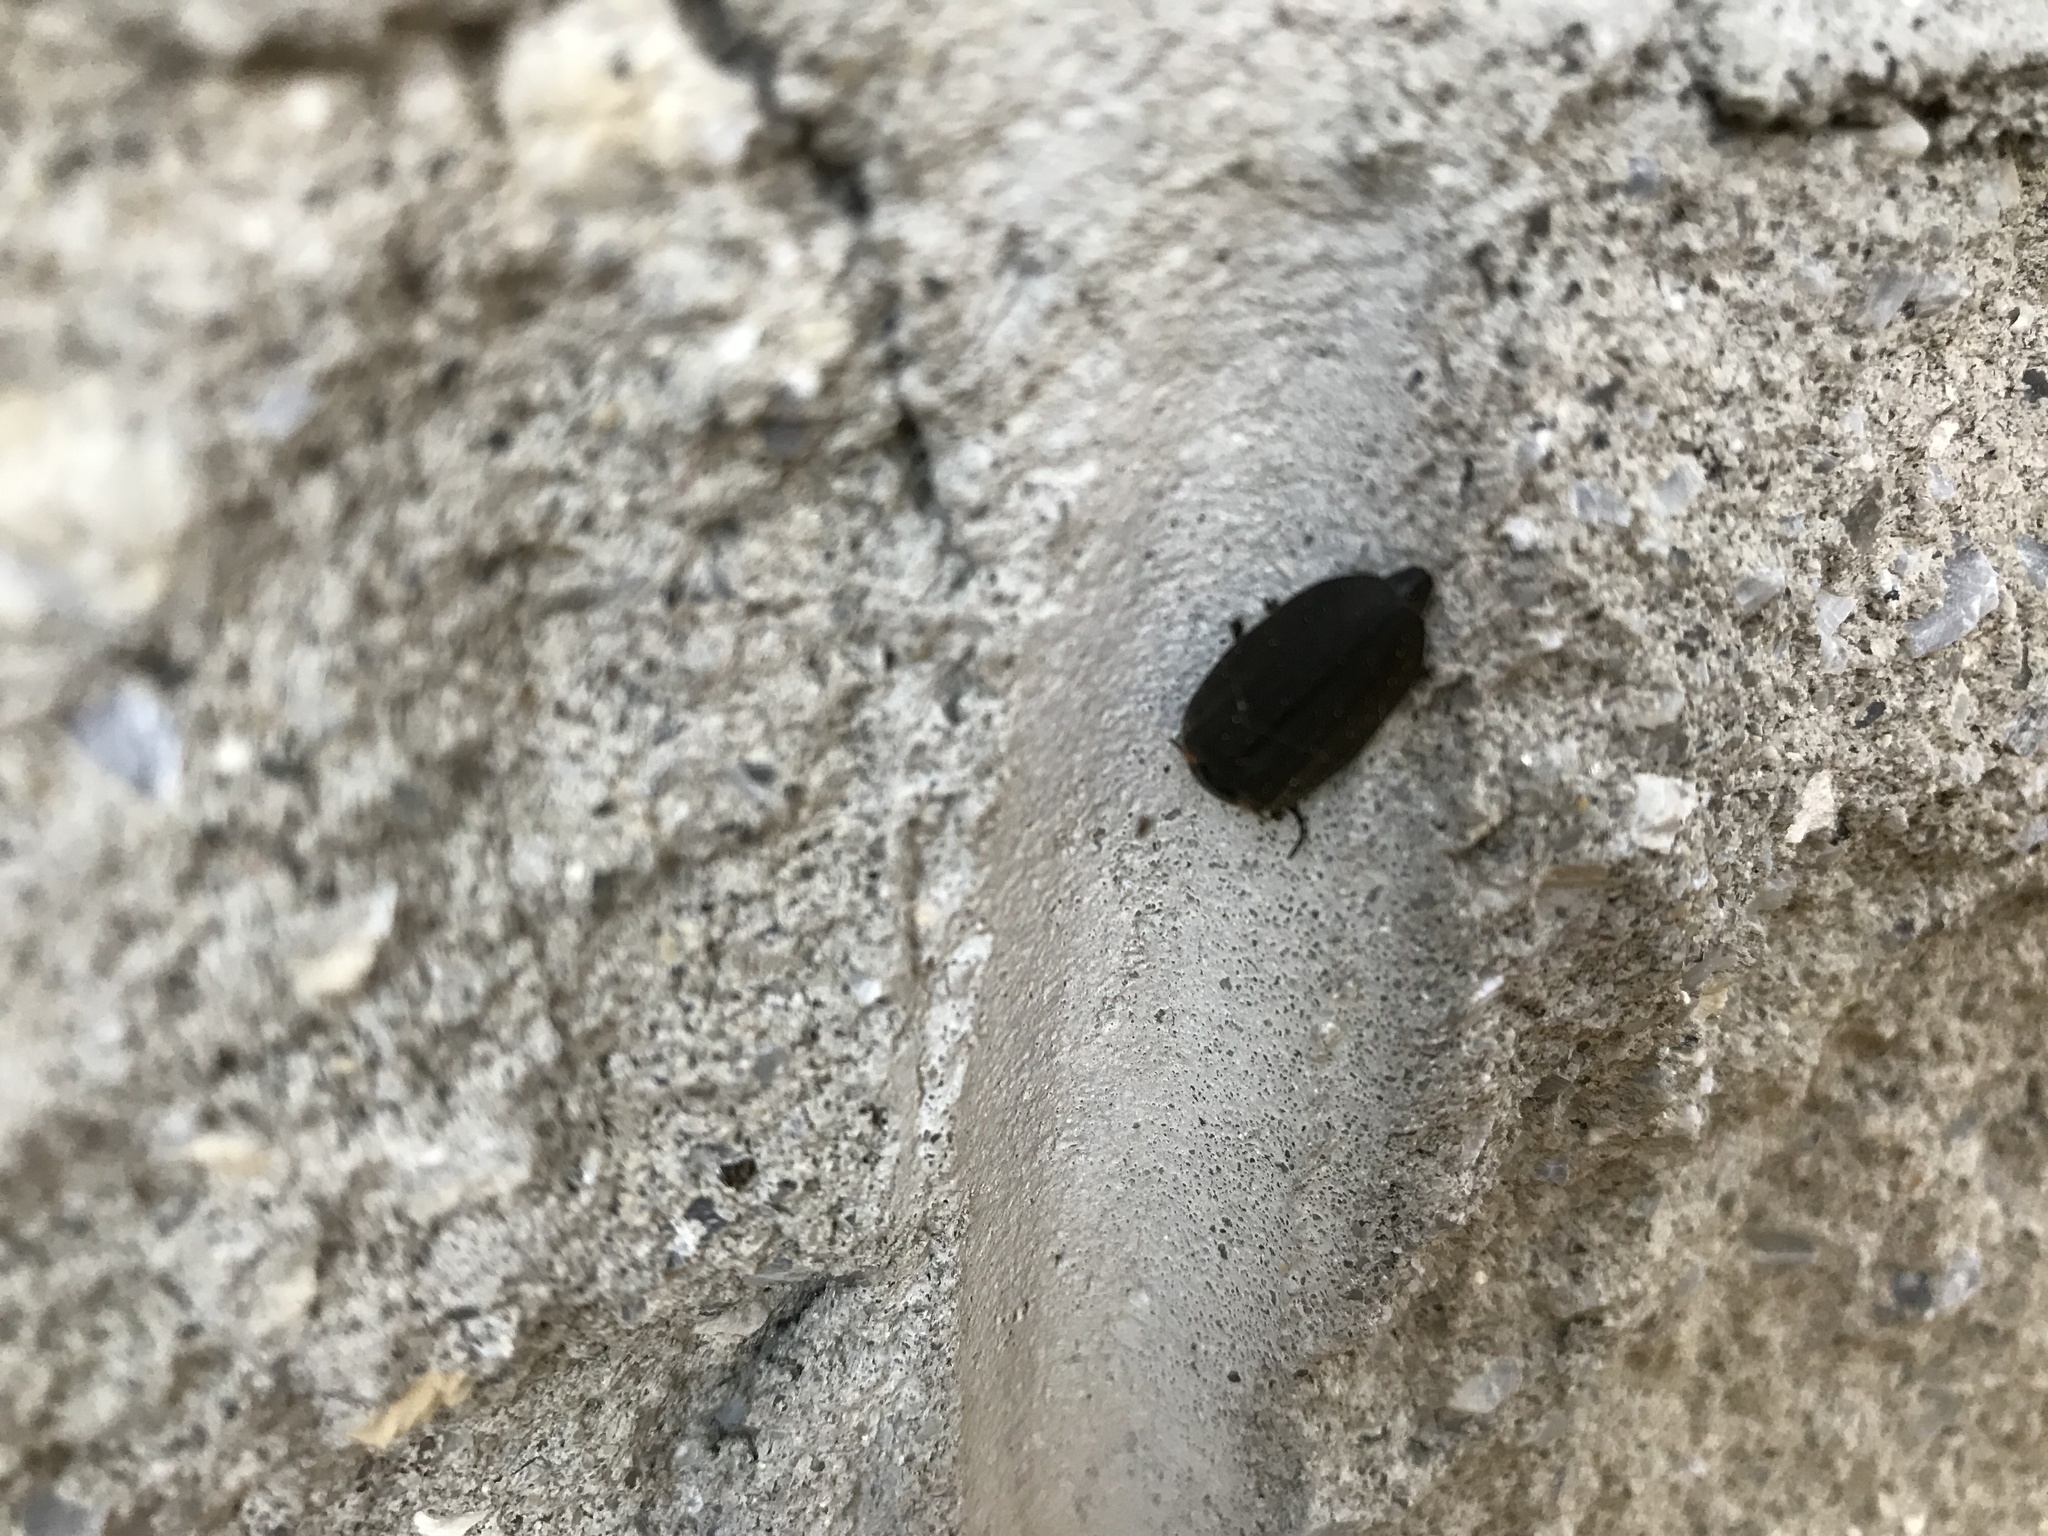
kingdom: Animalia
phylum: Arthropoda
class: Insecta
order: Coleoptera
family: Lampyridae
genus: Photinus
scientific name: Photinus corrusca
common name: Winter firefly
